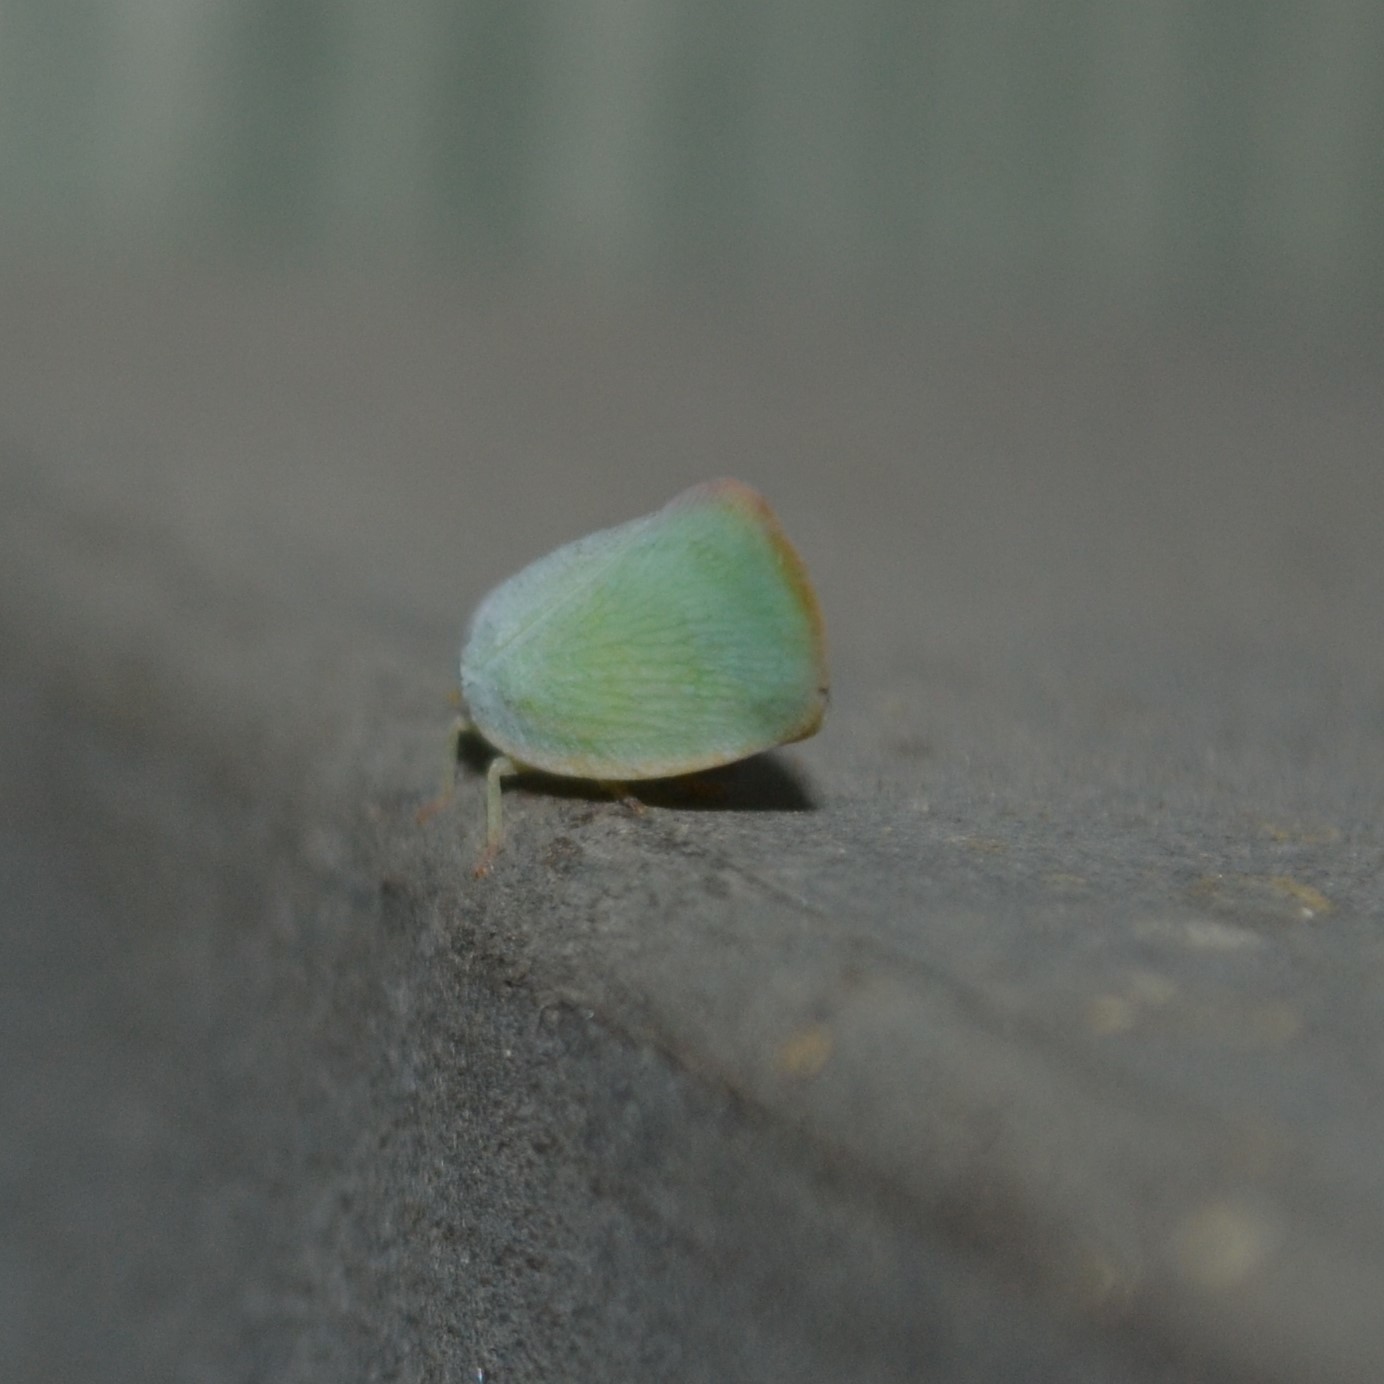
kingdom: Animalia
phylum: Arthropoda
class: Insecta
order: Hemiptera
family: Flatidae
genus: Ormenoides
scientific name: Ormenoides venusta
